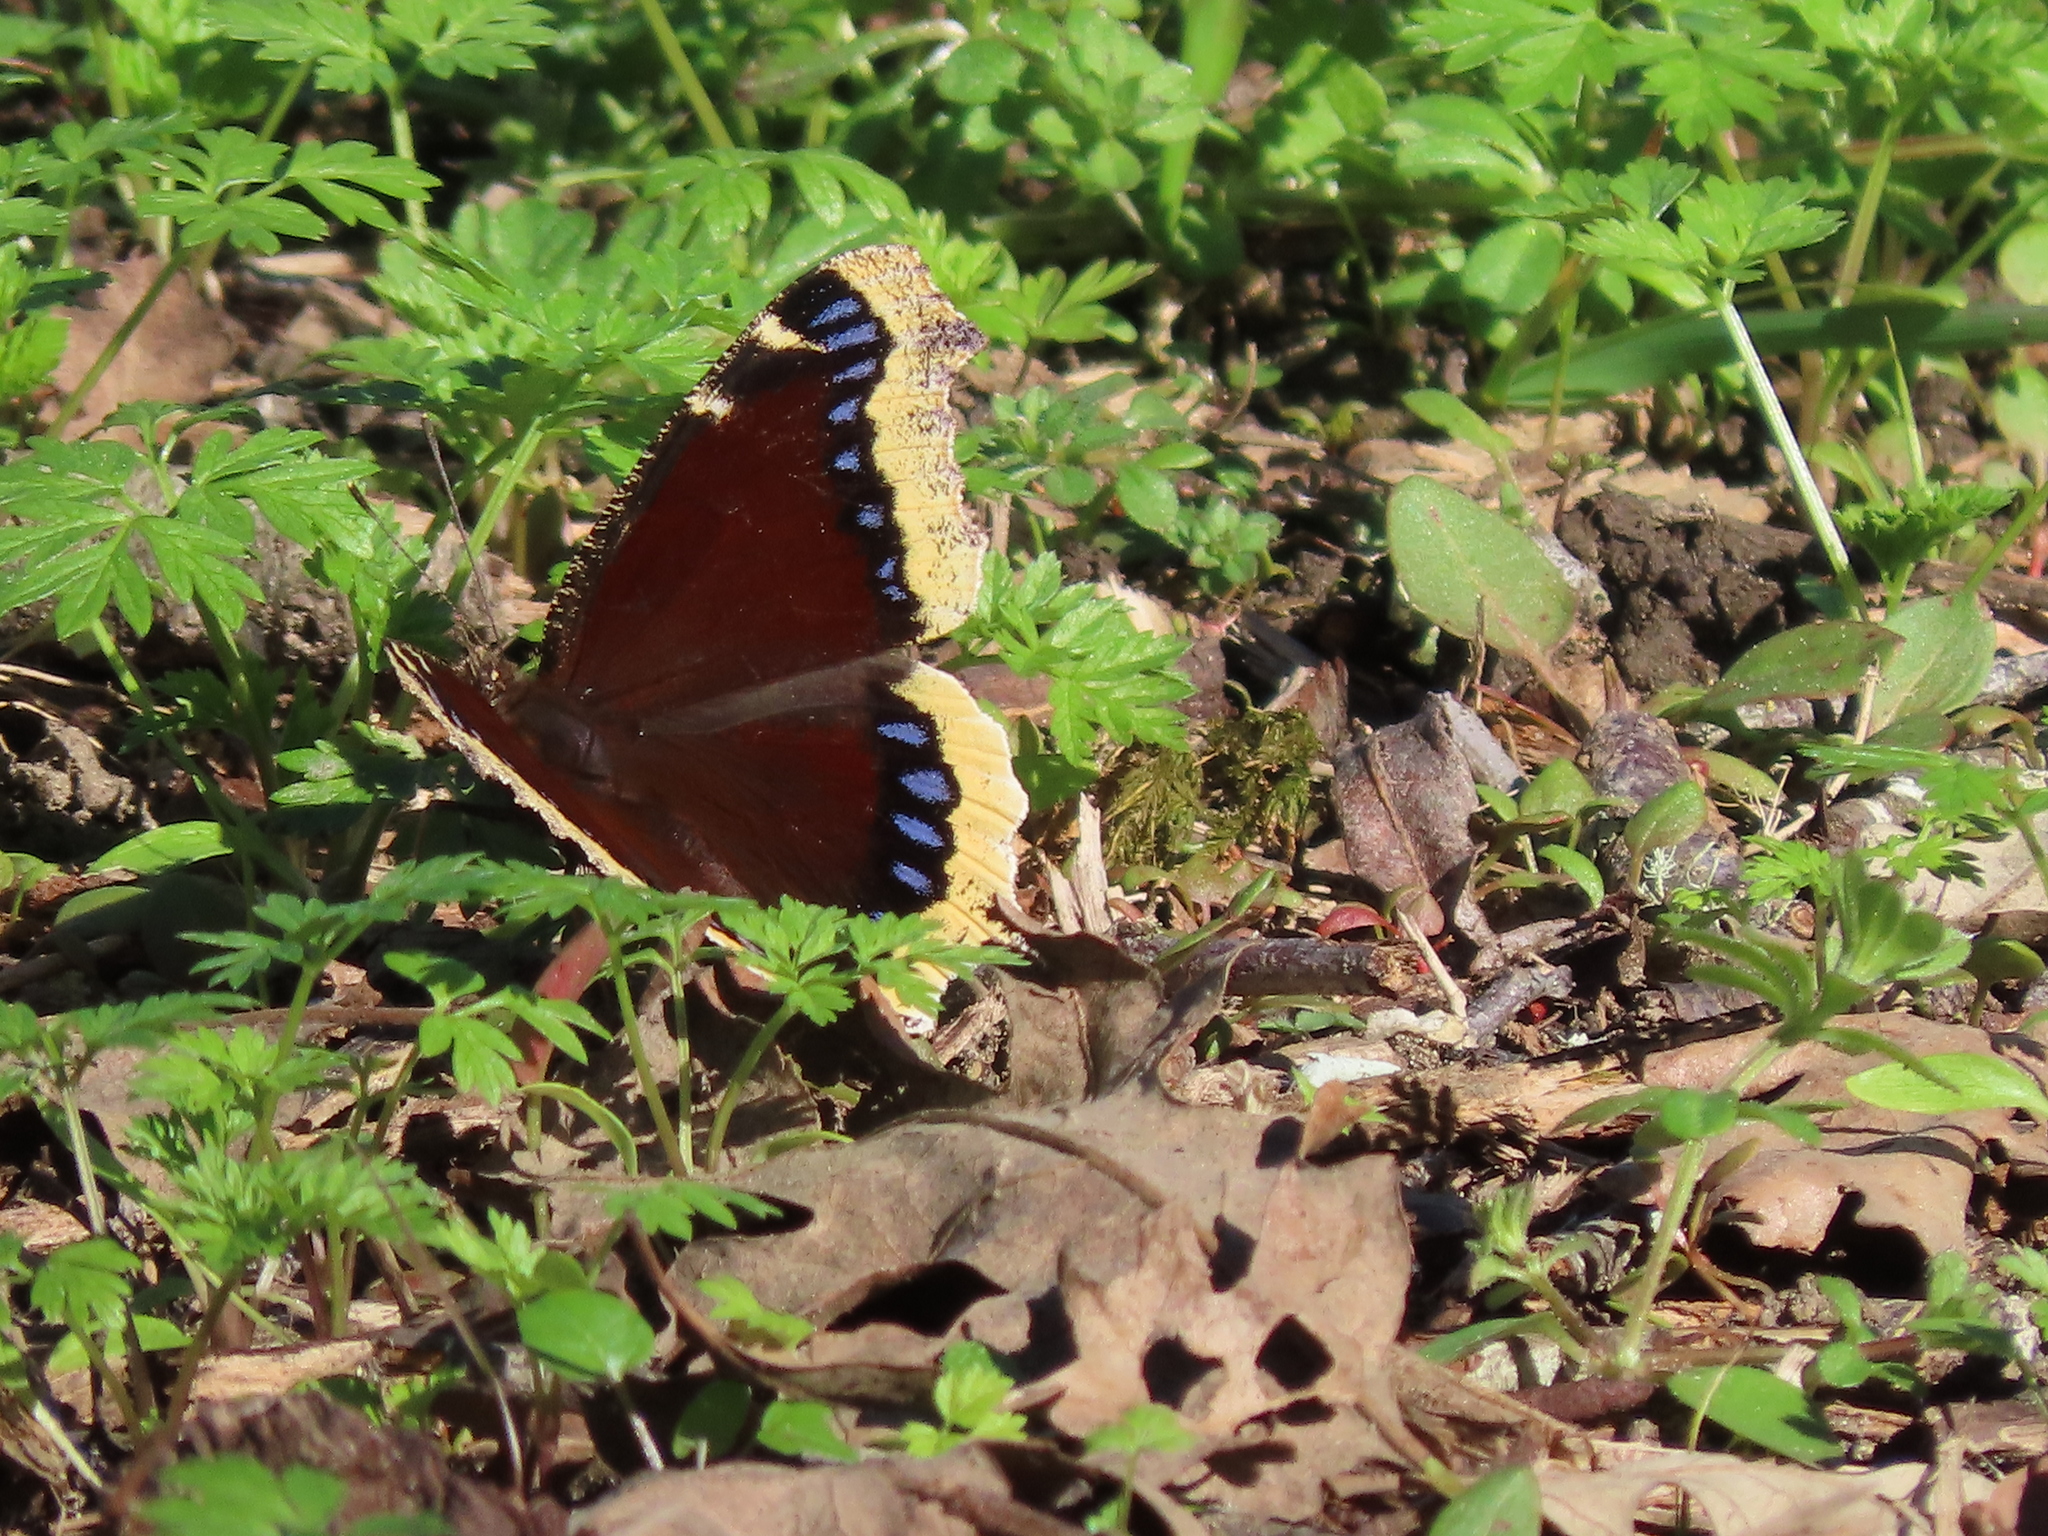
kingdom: Animalia
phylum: Arthropoda
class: Insecta
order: Lepidoptera
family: Nymphalidae
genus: Nymphalis
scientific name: Nymphalis antiopa
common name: Camberwell beauty
